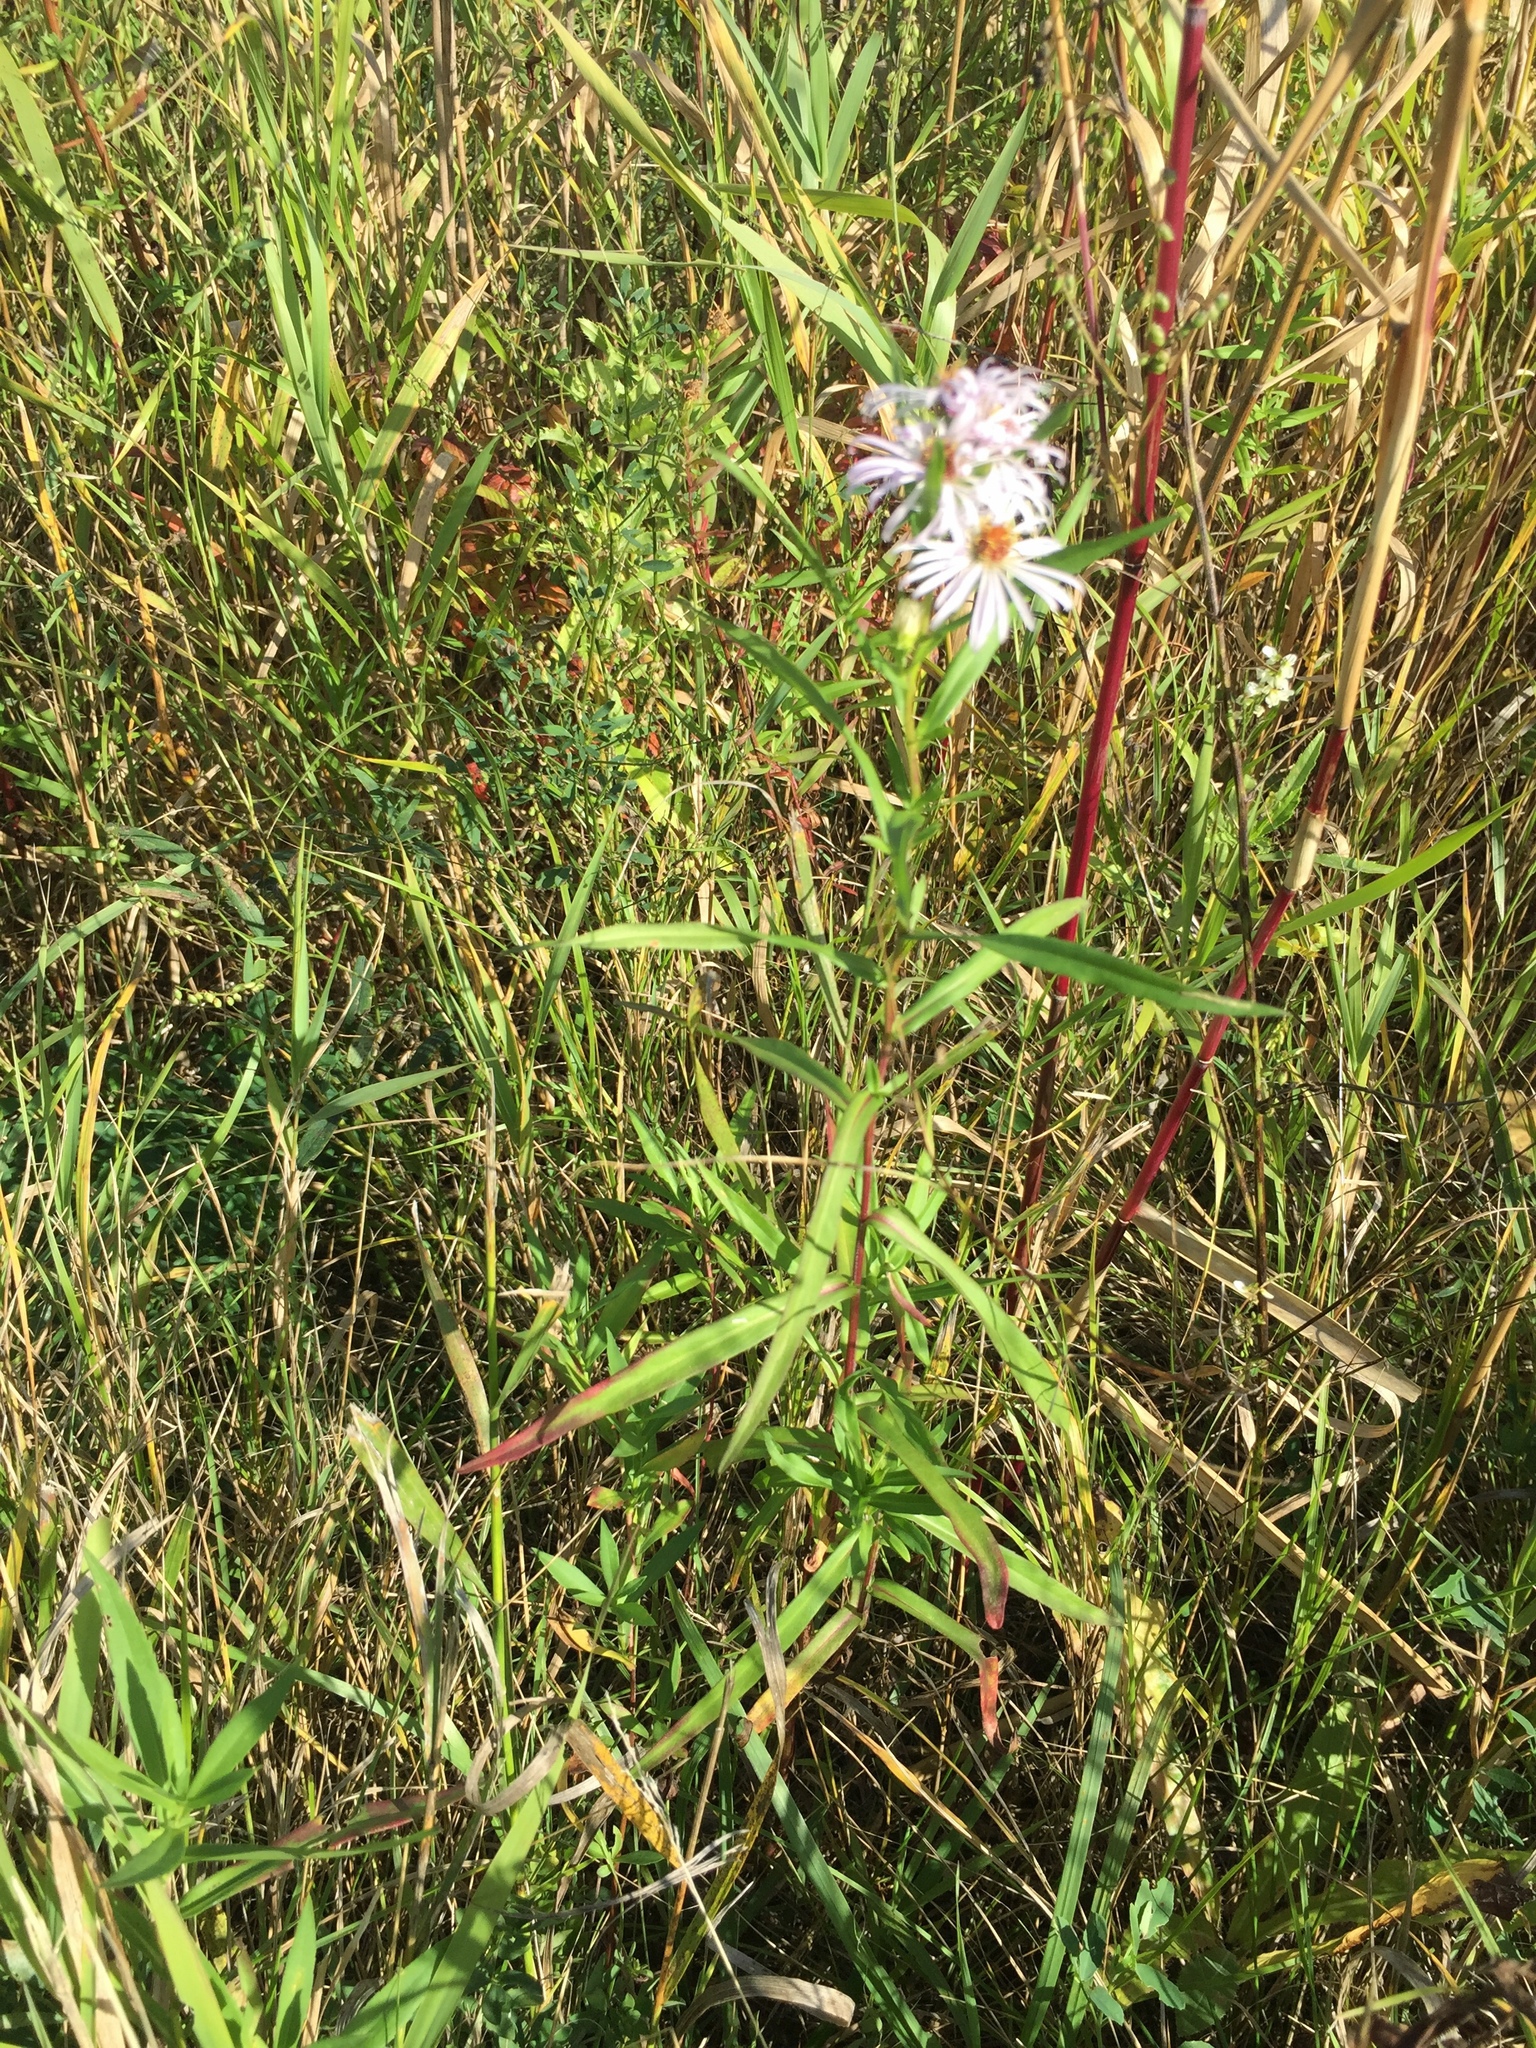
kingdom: Plantae
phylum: Tracheophyta
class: Magnoliopsida
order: Asterales
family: Asteraceae
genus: Symphyotrichum
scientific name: Symphyotrichum lanceolatum
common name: Panicled aster
